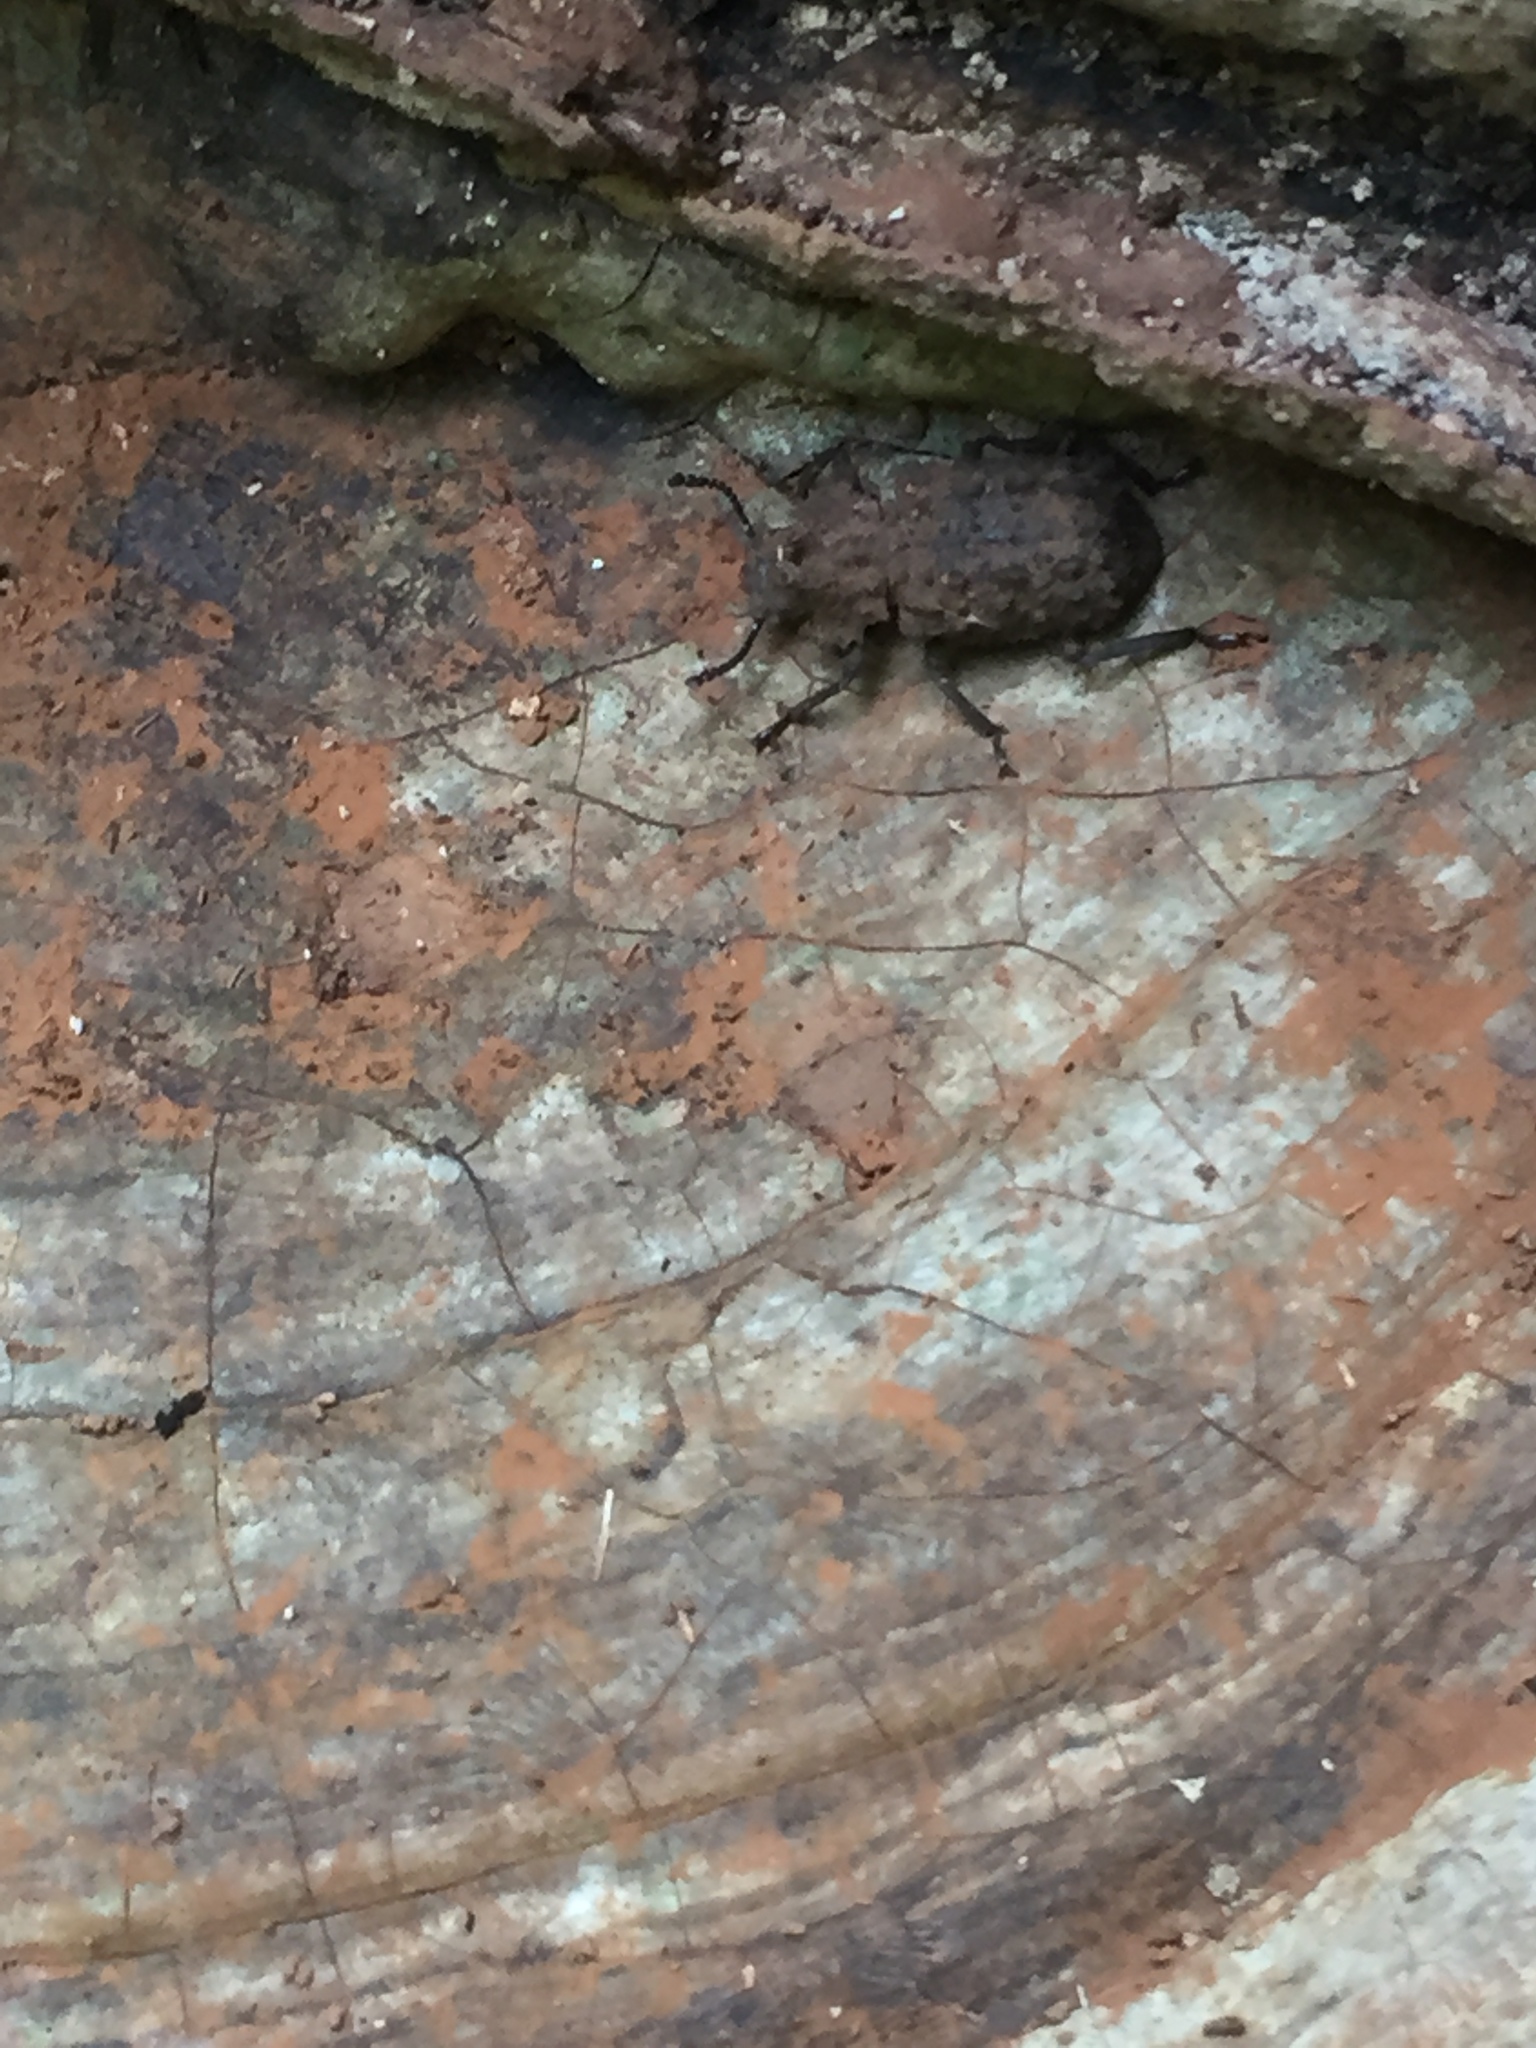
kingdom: Animalia
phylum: Arthropoda
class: Insecta
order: Coleoptera
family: Tenebrionidae
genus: Gnatocerus
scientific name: Gnatocerus cornutus
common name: Broad-horned flour beetle
